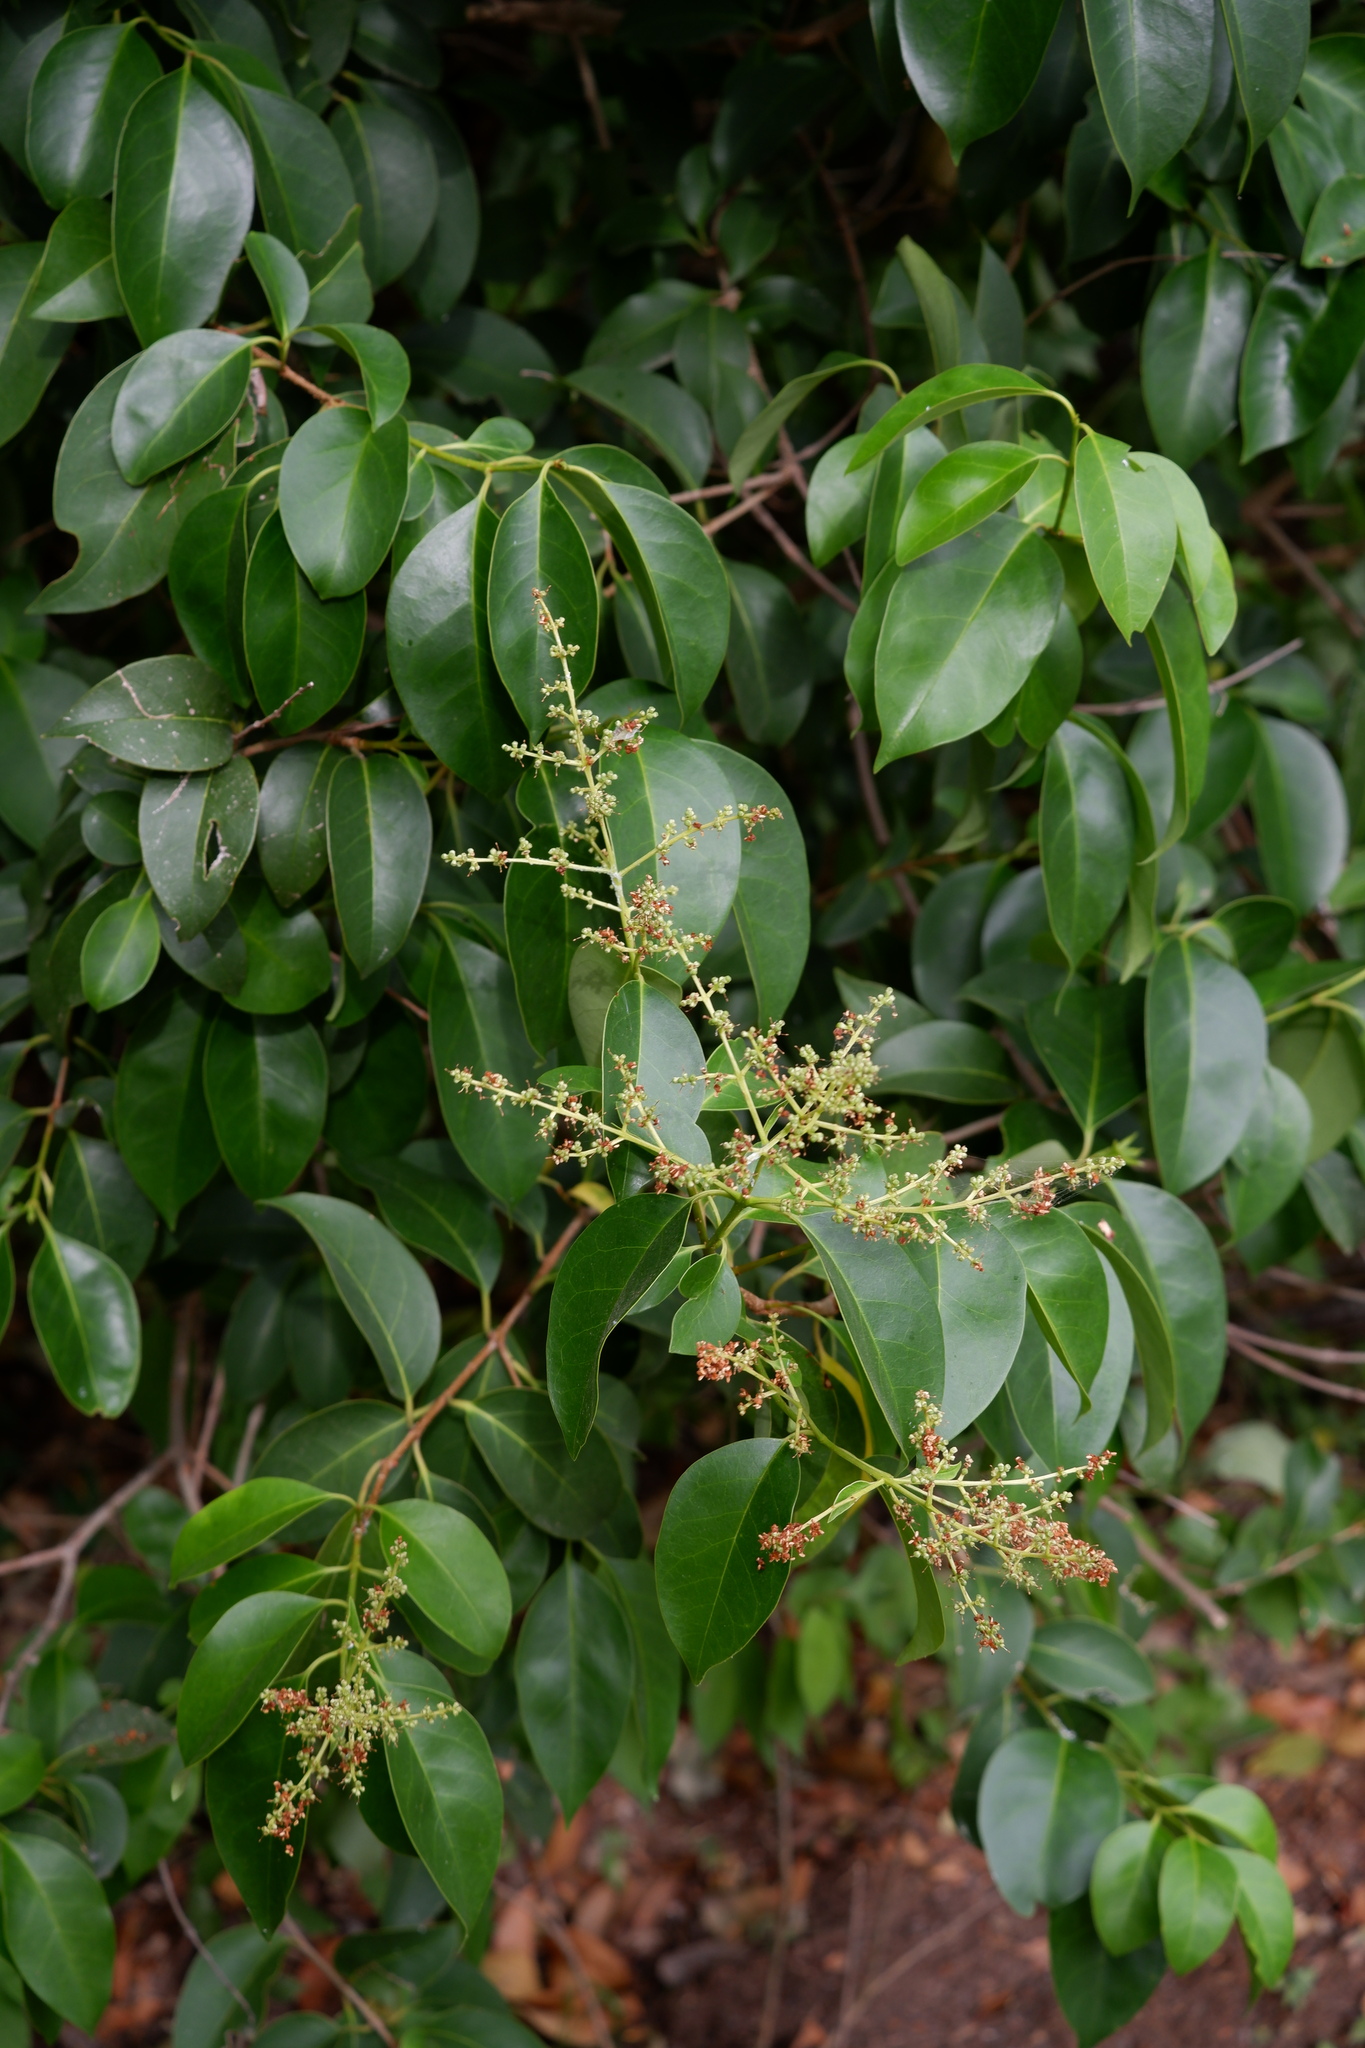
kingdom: Plantae
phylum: Tracheophyta
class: Magnoliopsida
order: Lamiales
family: Oleaceae
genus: Ligustrum
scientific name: Ligustrum lucidum
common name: Glossy privet
